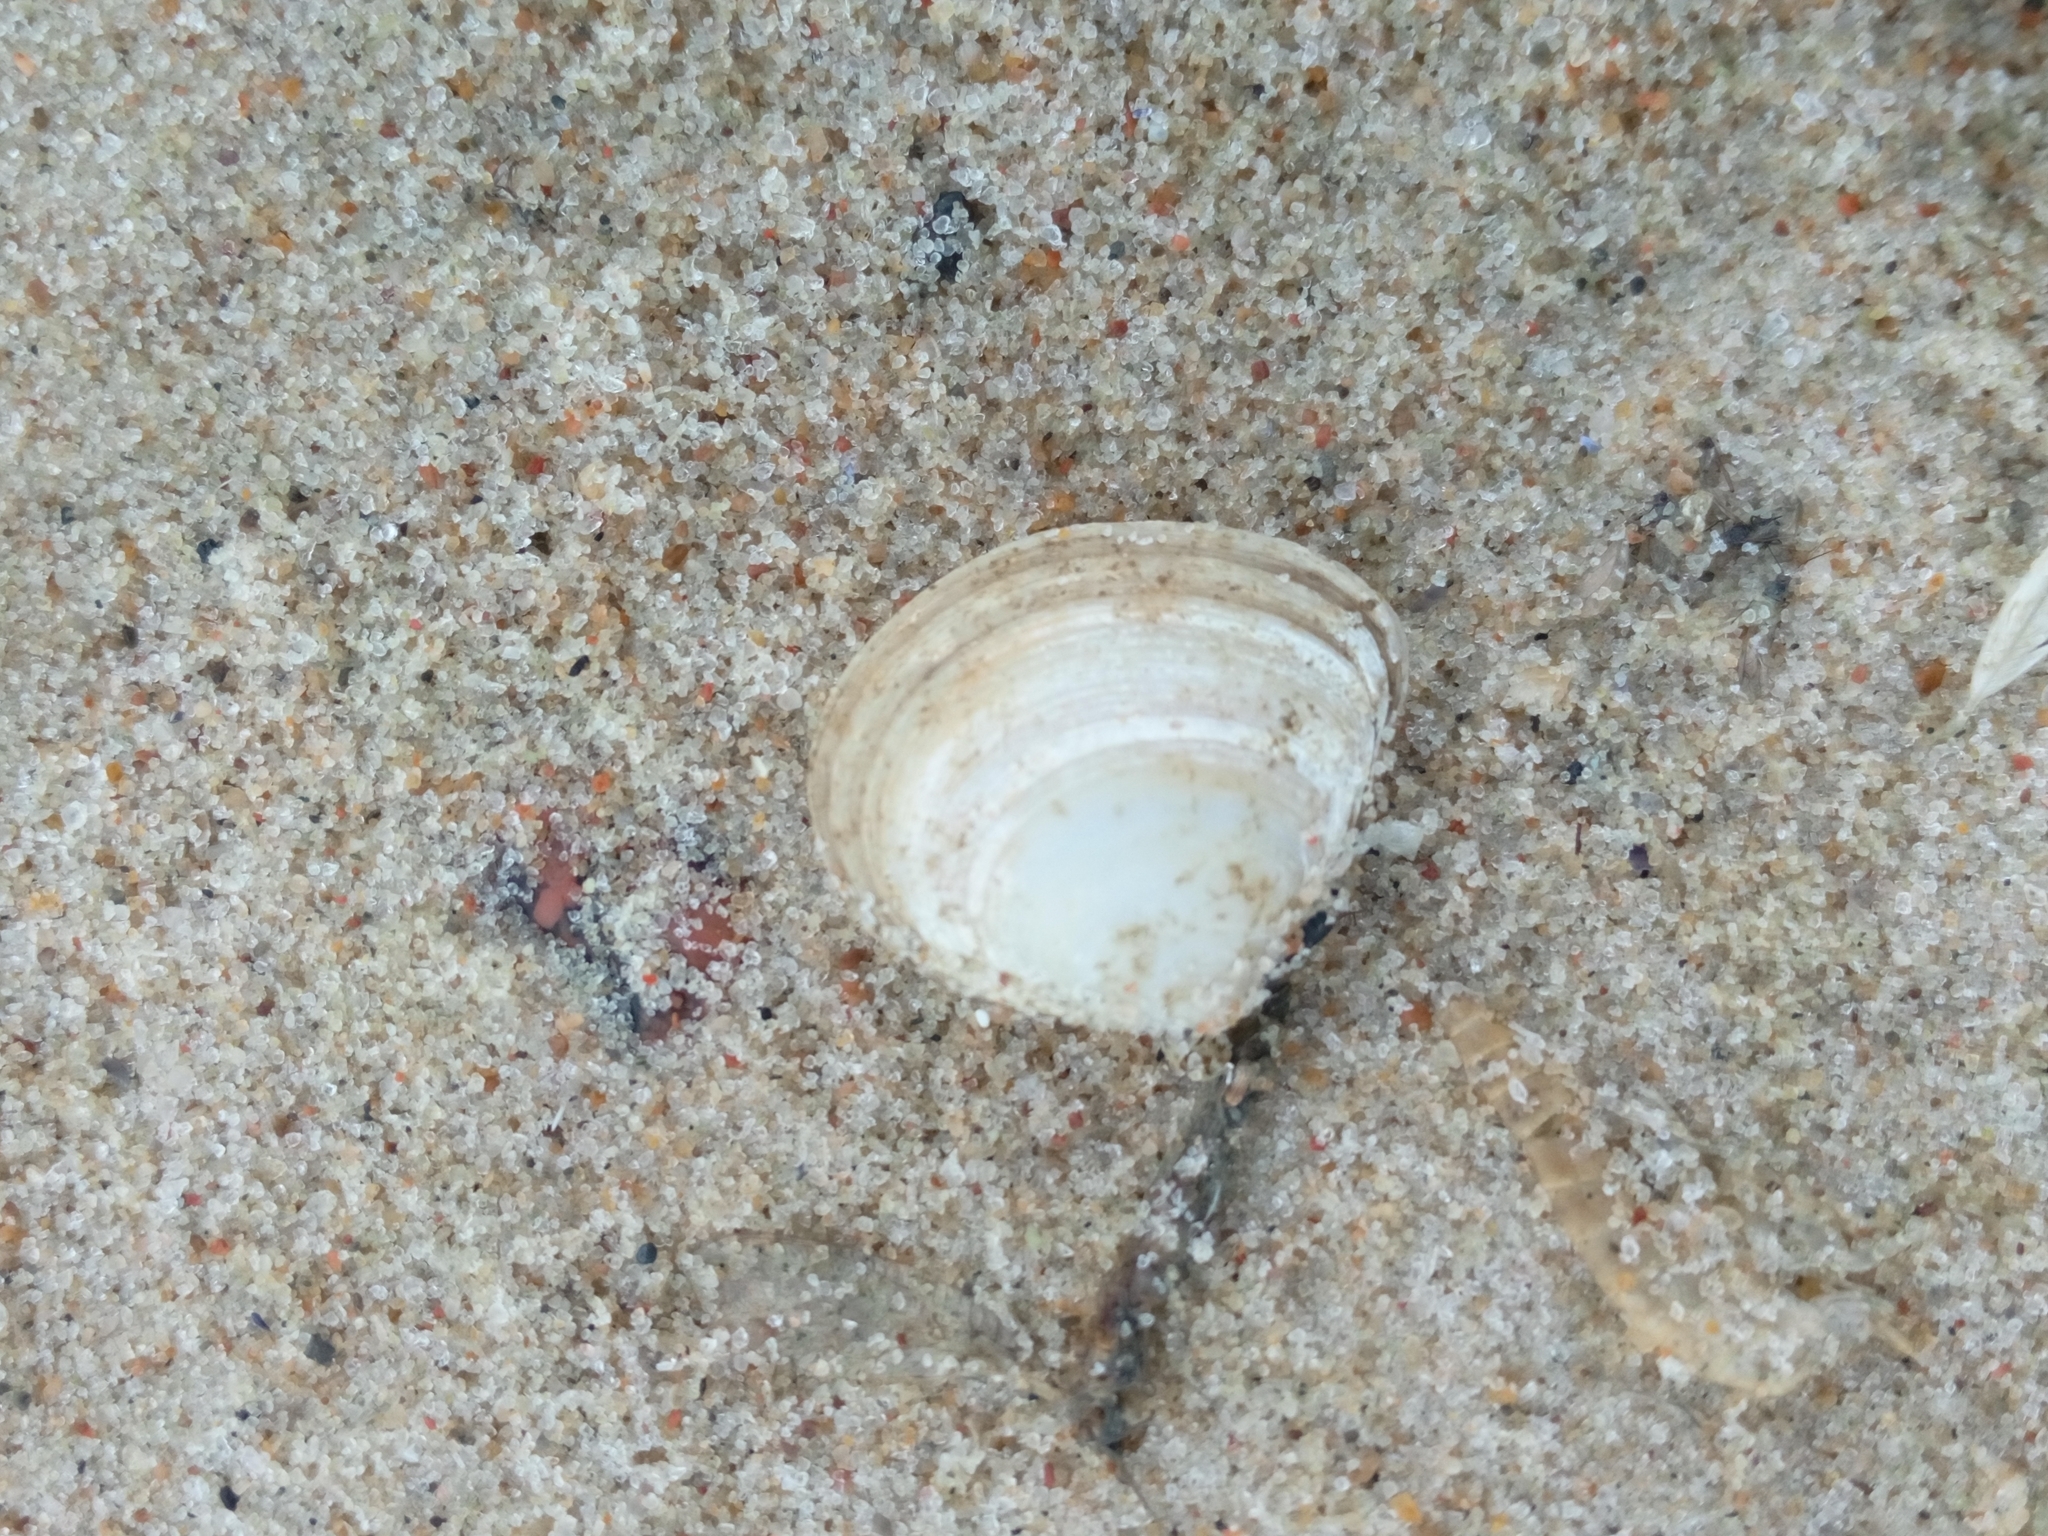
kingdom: Animalia
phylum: Mollusca
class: Bivalvia
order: Cardiida
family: Tellinidae
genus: Macoma
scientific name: Macoma balthica
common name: Baltic tellin
